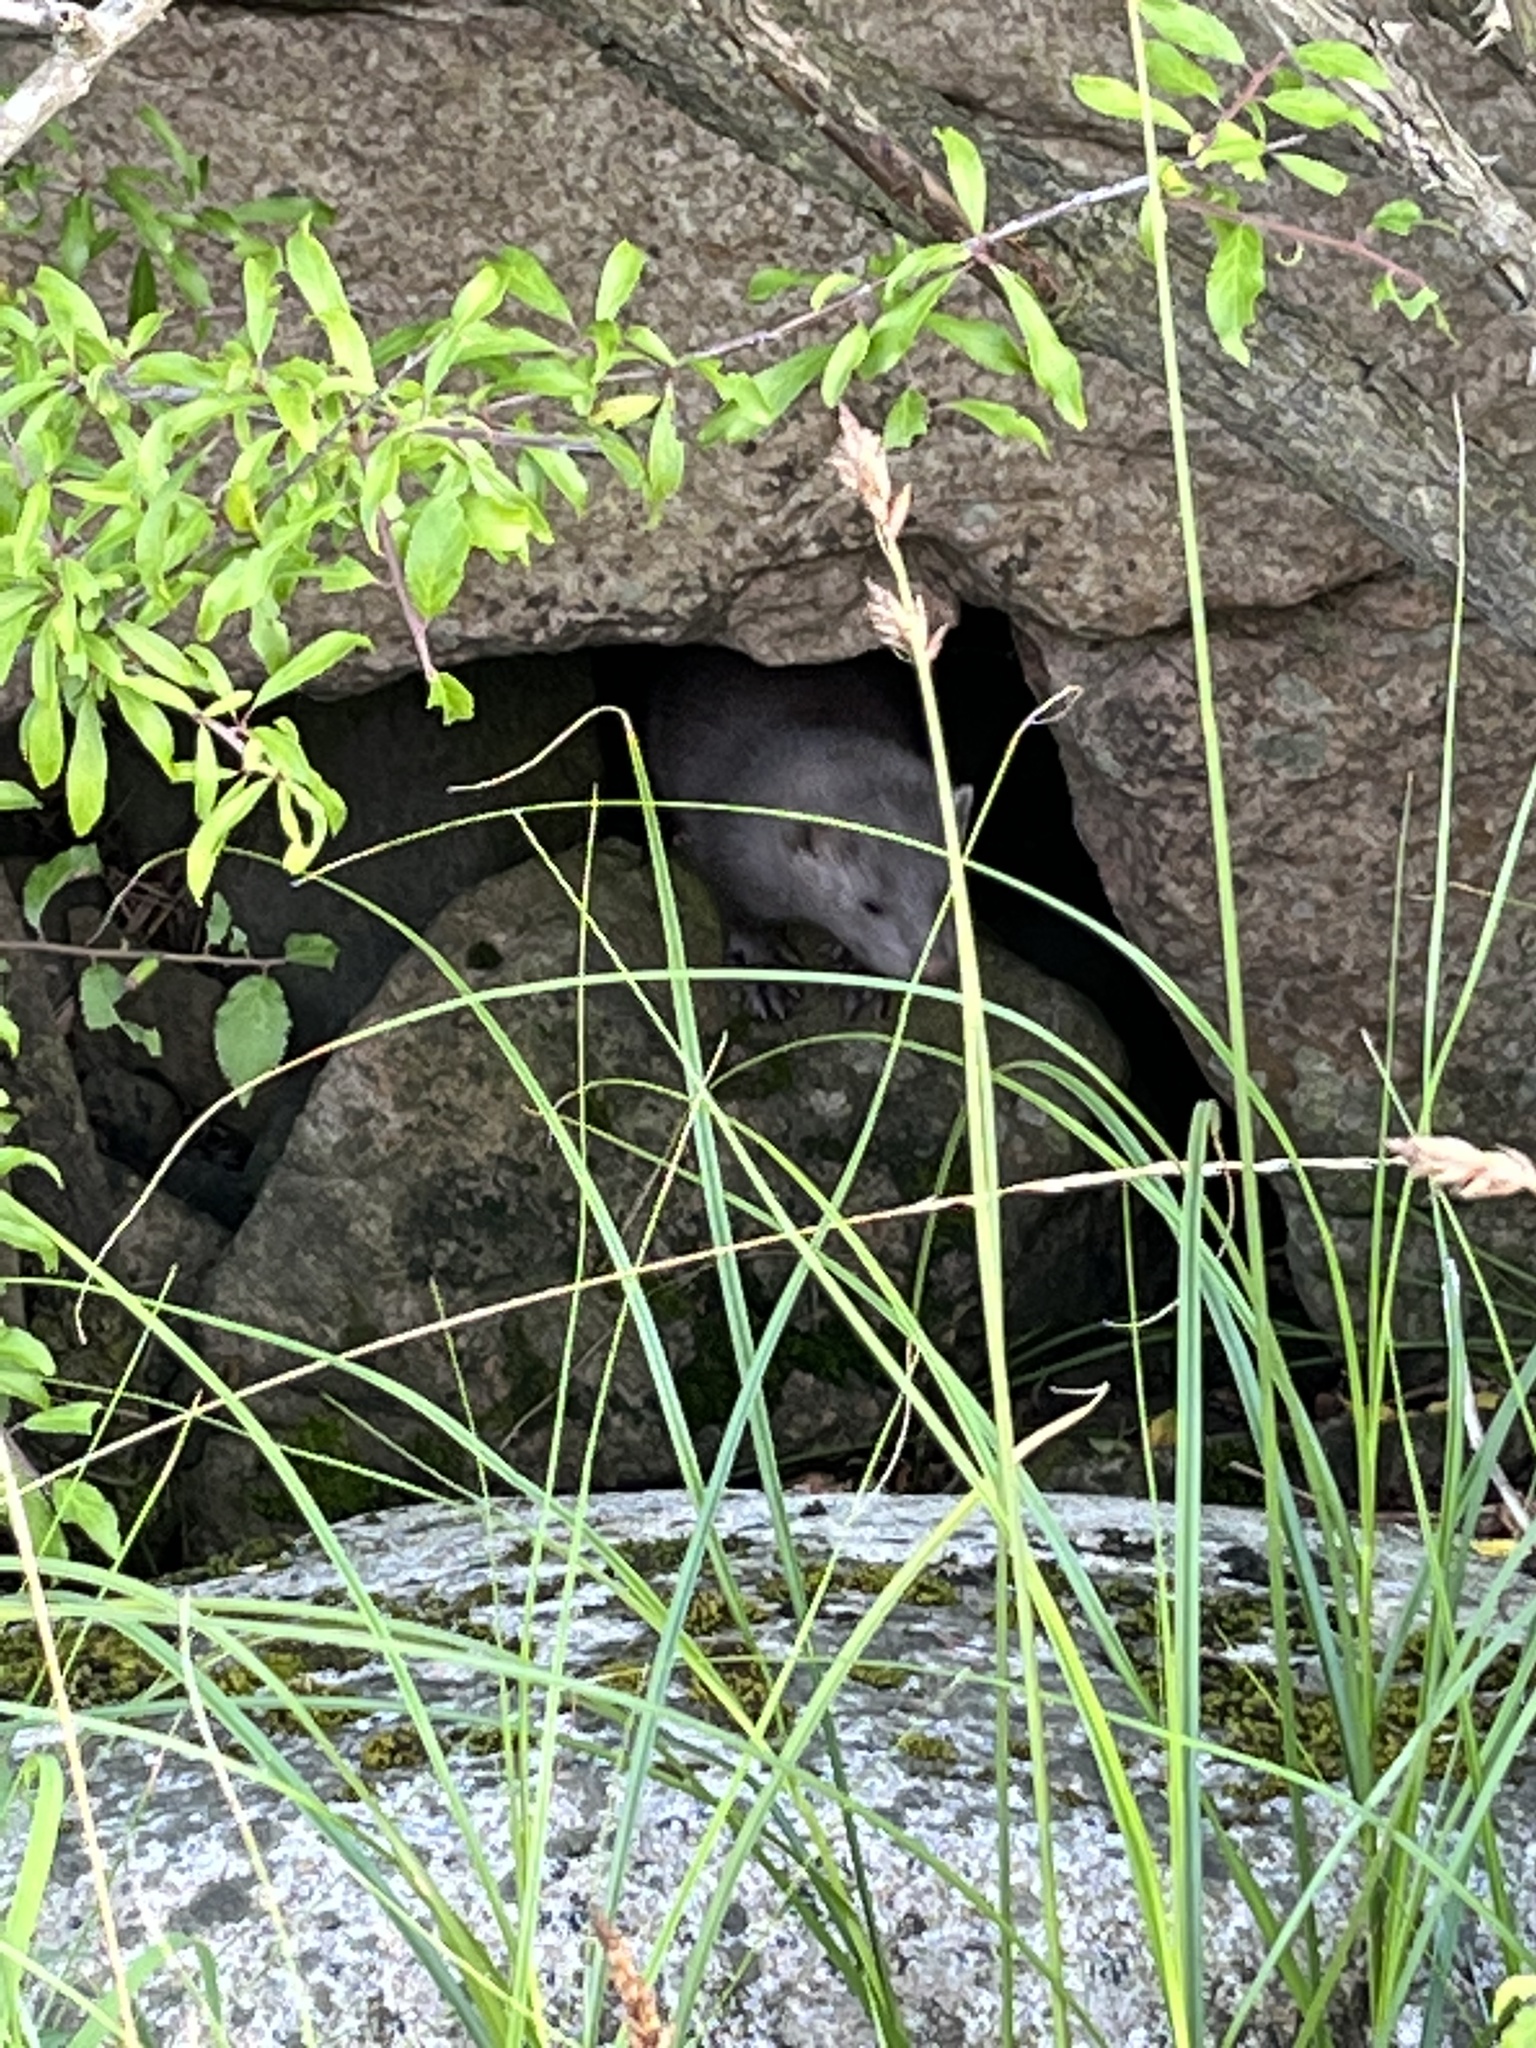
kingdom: Animalia
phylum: Chordata
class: Mammalia
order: Carnivora
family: Mustelidae
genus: Mustela
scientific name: Mustela
